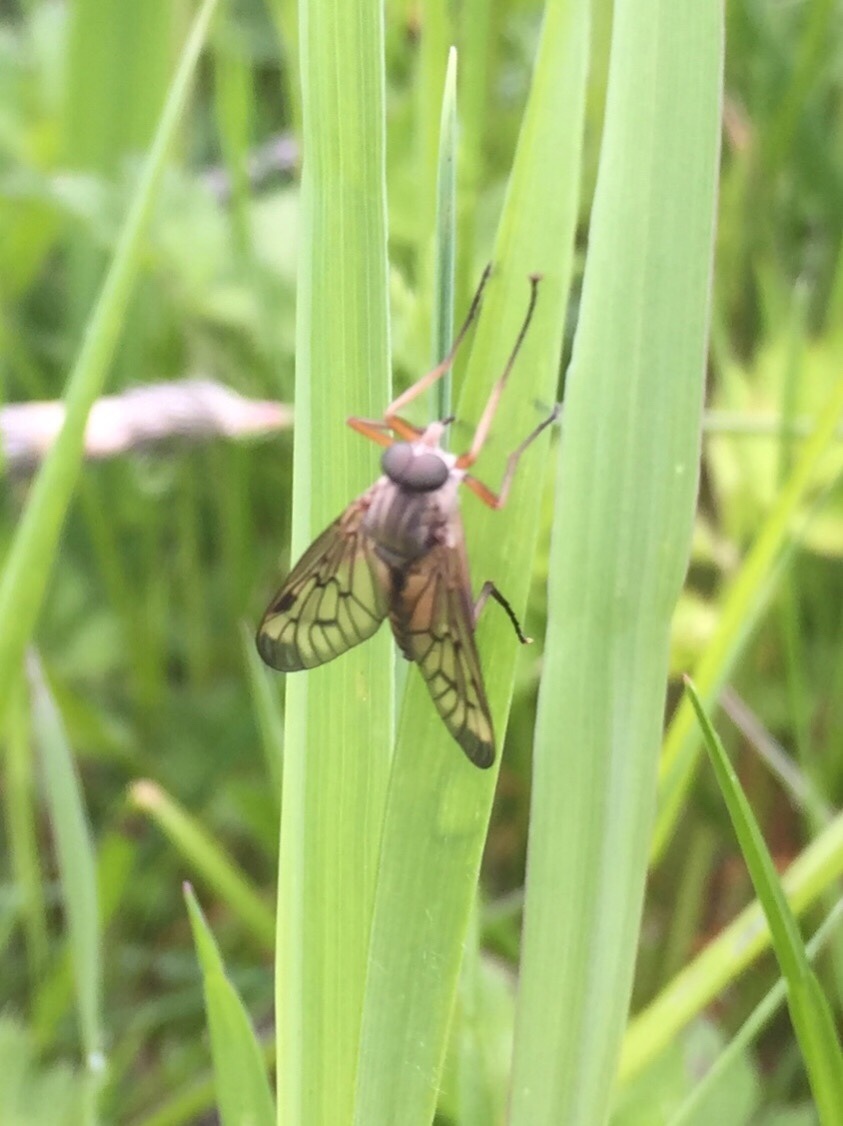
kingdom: Animalia
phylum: Arthropoda
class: Insecta
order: Diptera
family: Rhagionidae
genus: Rhagio
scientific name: Rhagio scolopacea
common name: Downlooker snipefly
